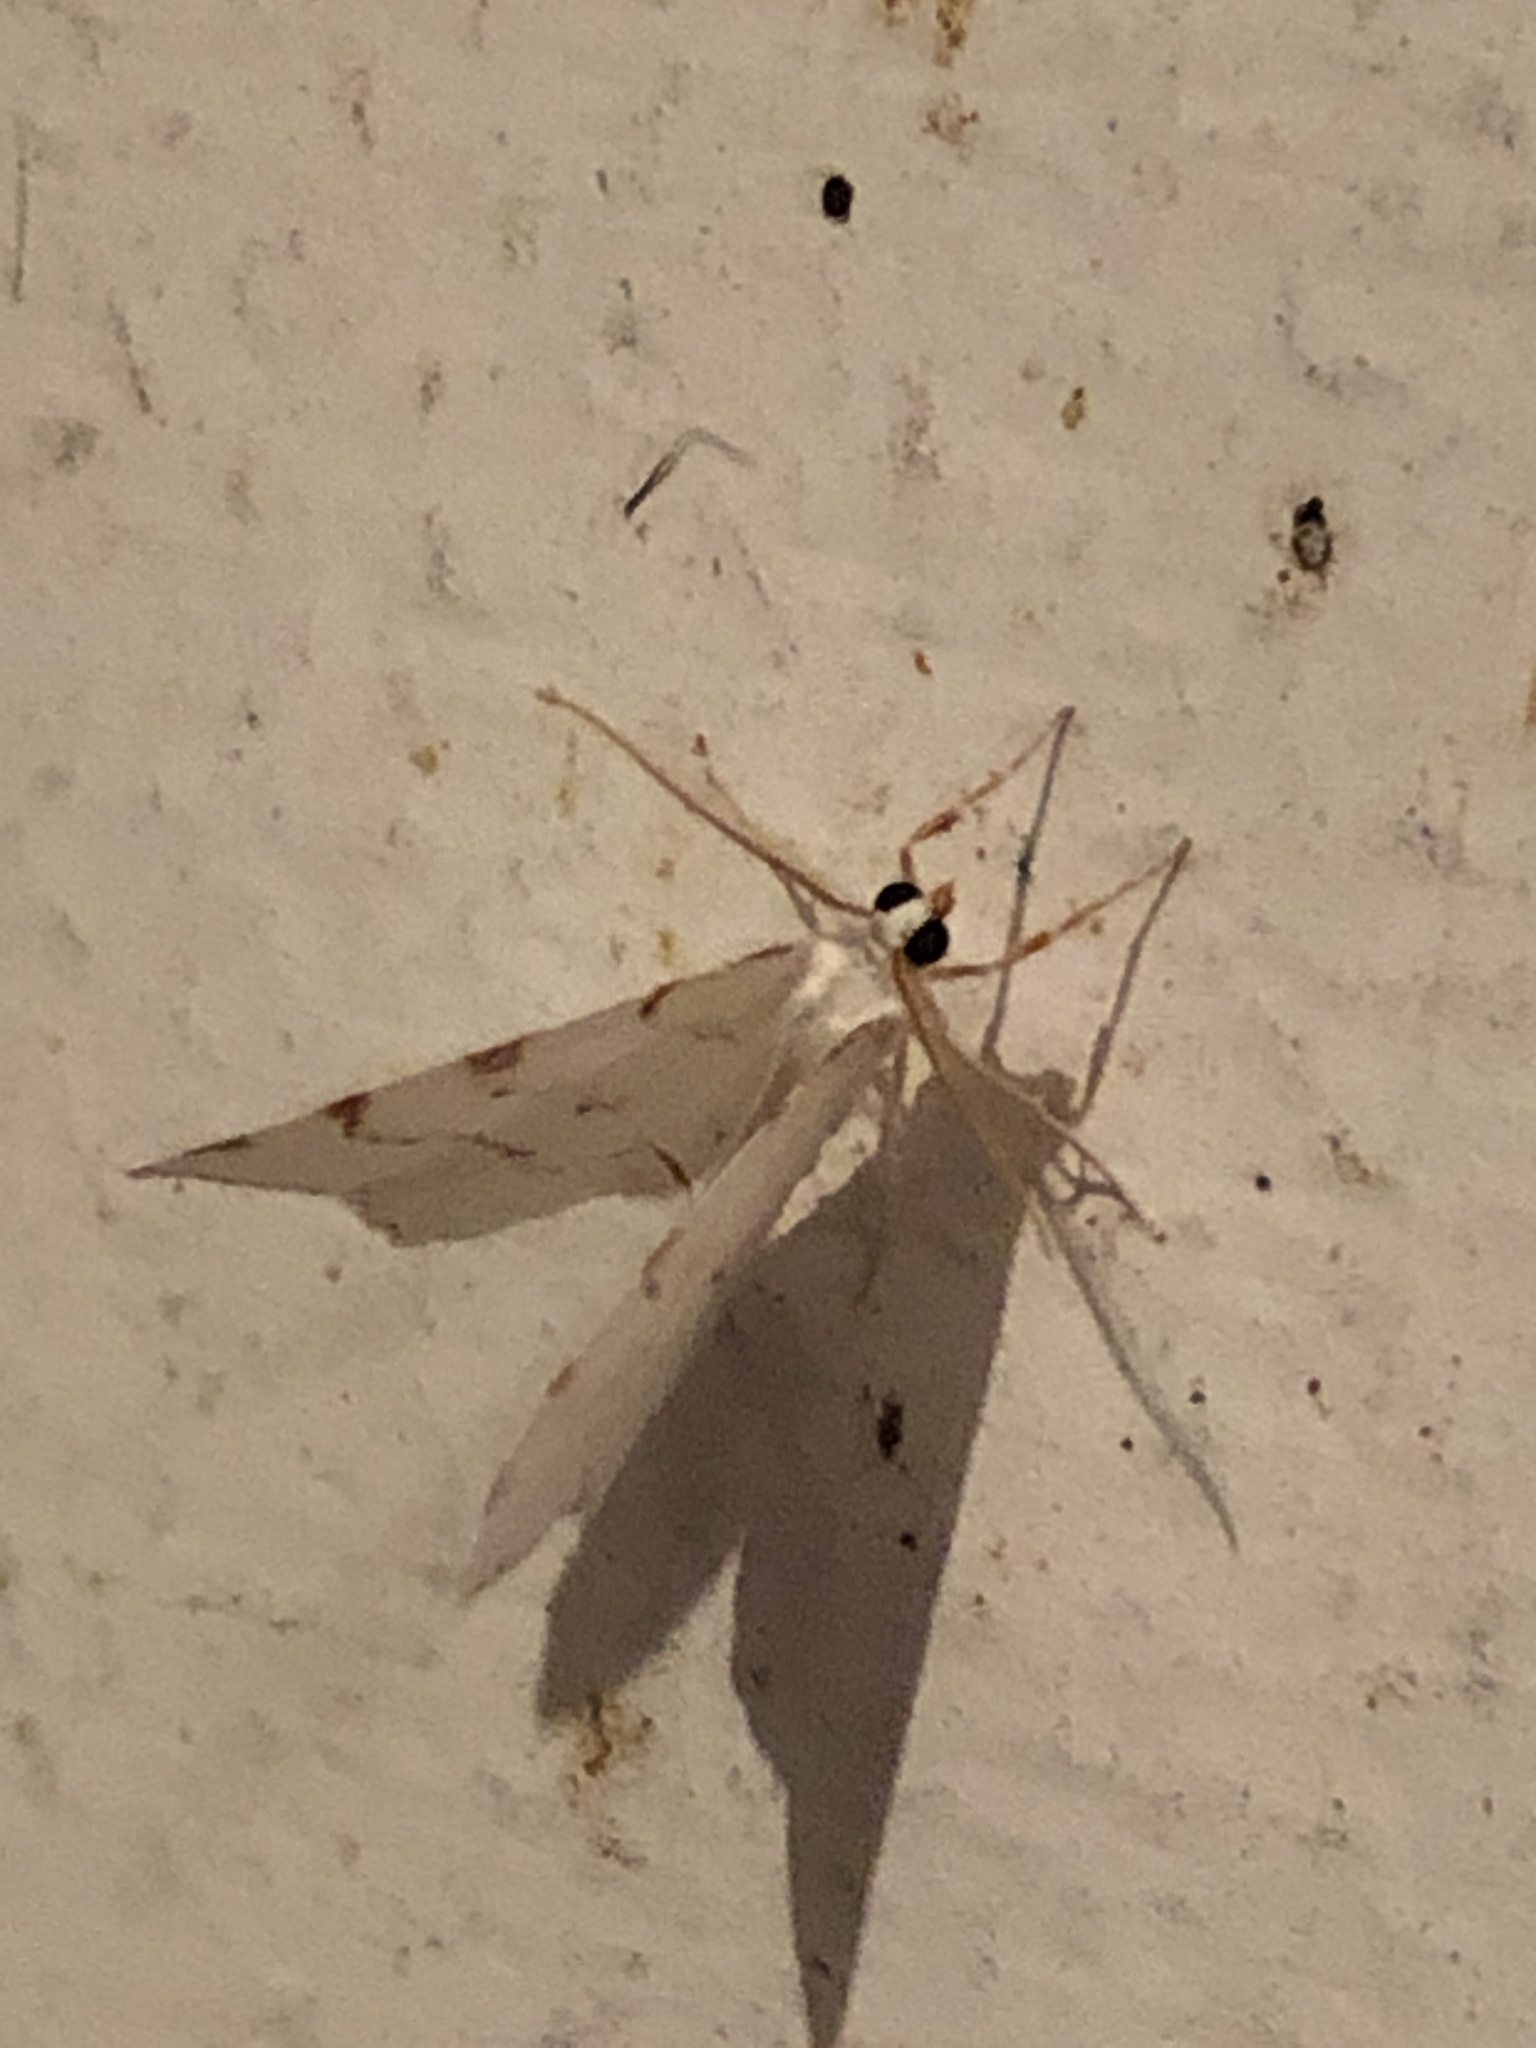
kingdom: Animalia
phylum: Arthropoda
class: Insecta
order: Lepidoptera
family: Geometridae
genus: Macaria
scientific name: Macaria pustularia
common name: Lesser maple spanworm moth
